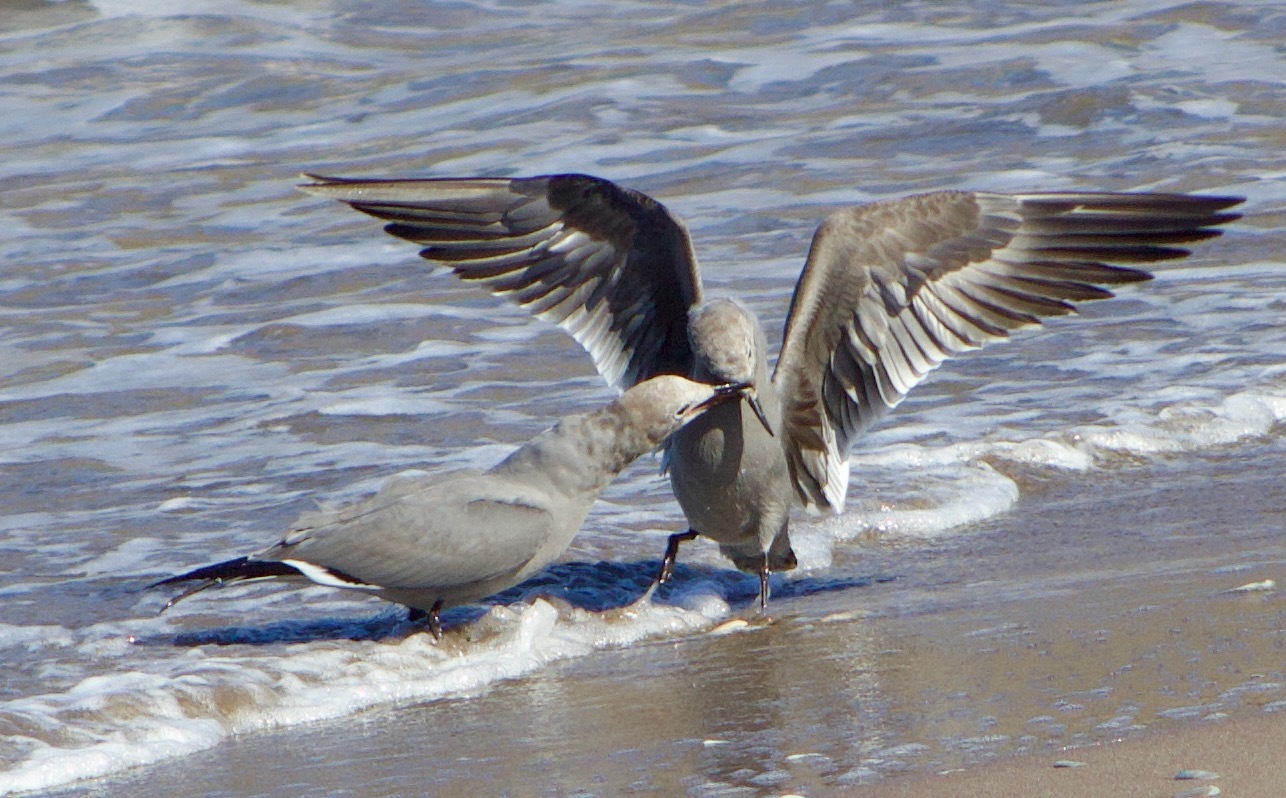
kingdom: Animalia
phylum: Chordata
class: Aves
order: Charadriiformes
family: Laridae
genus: Leucophaeus
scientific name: Leucophaeus modestus
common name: Gray gull
